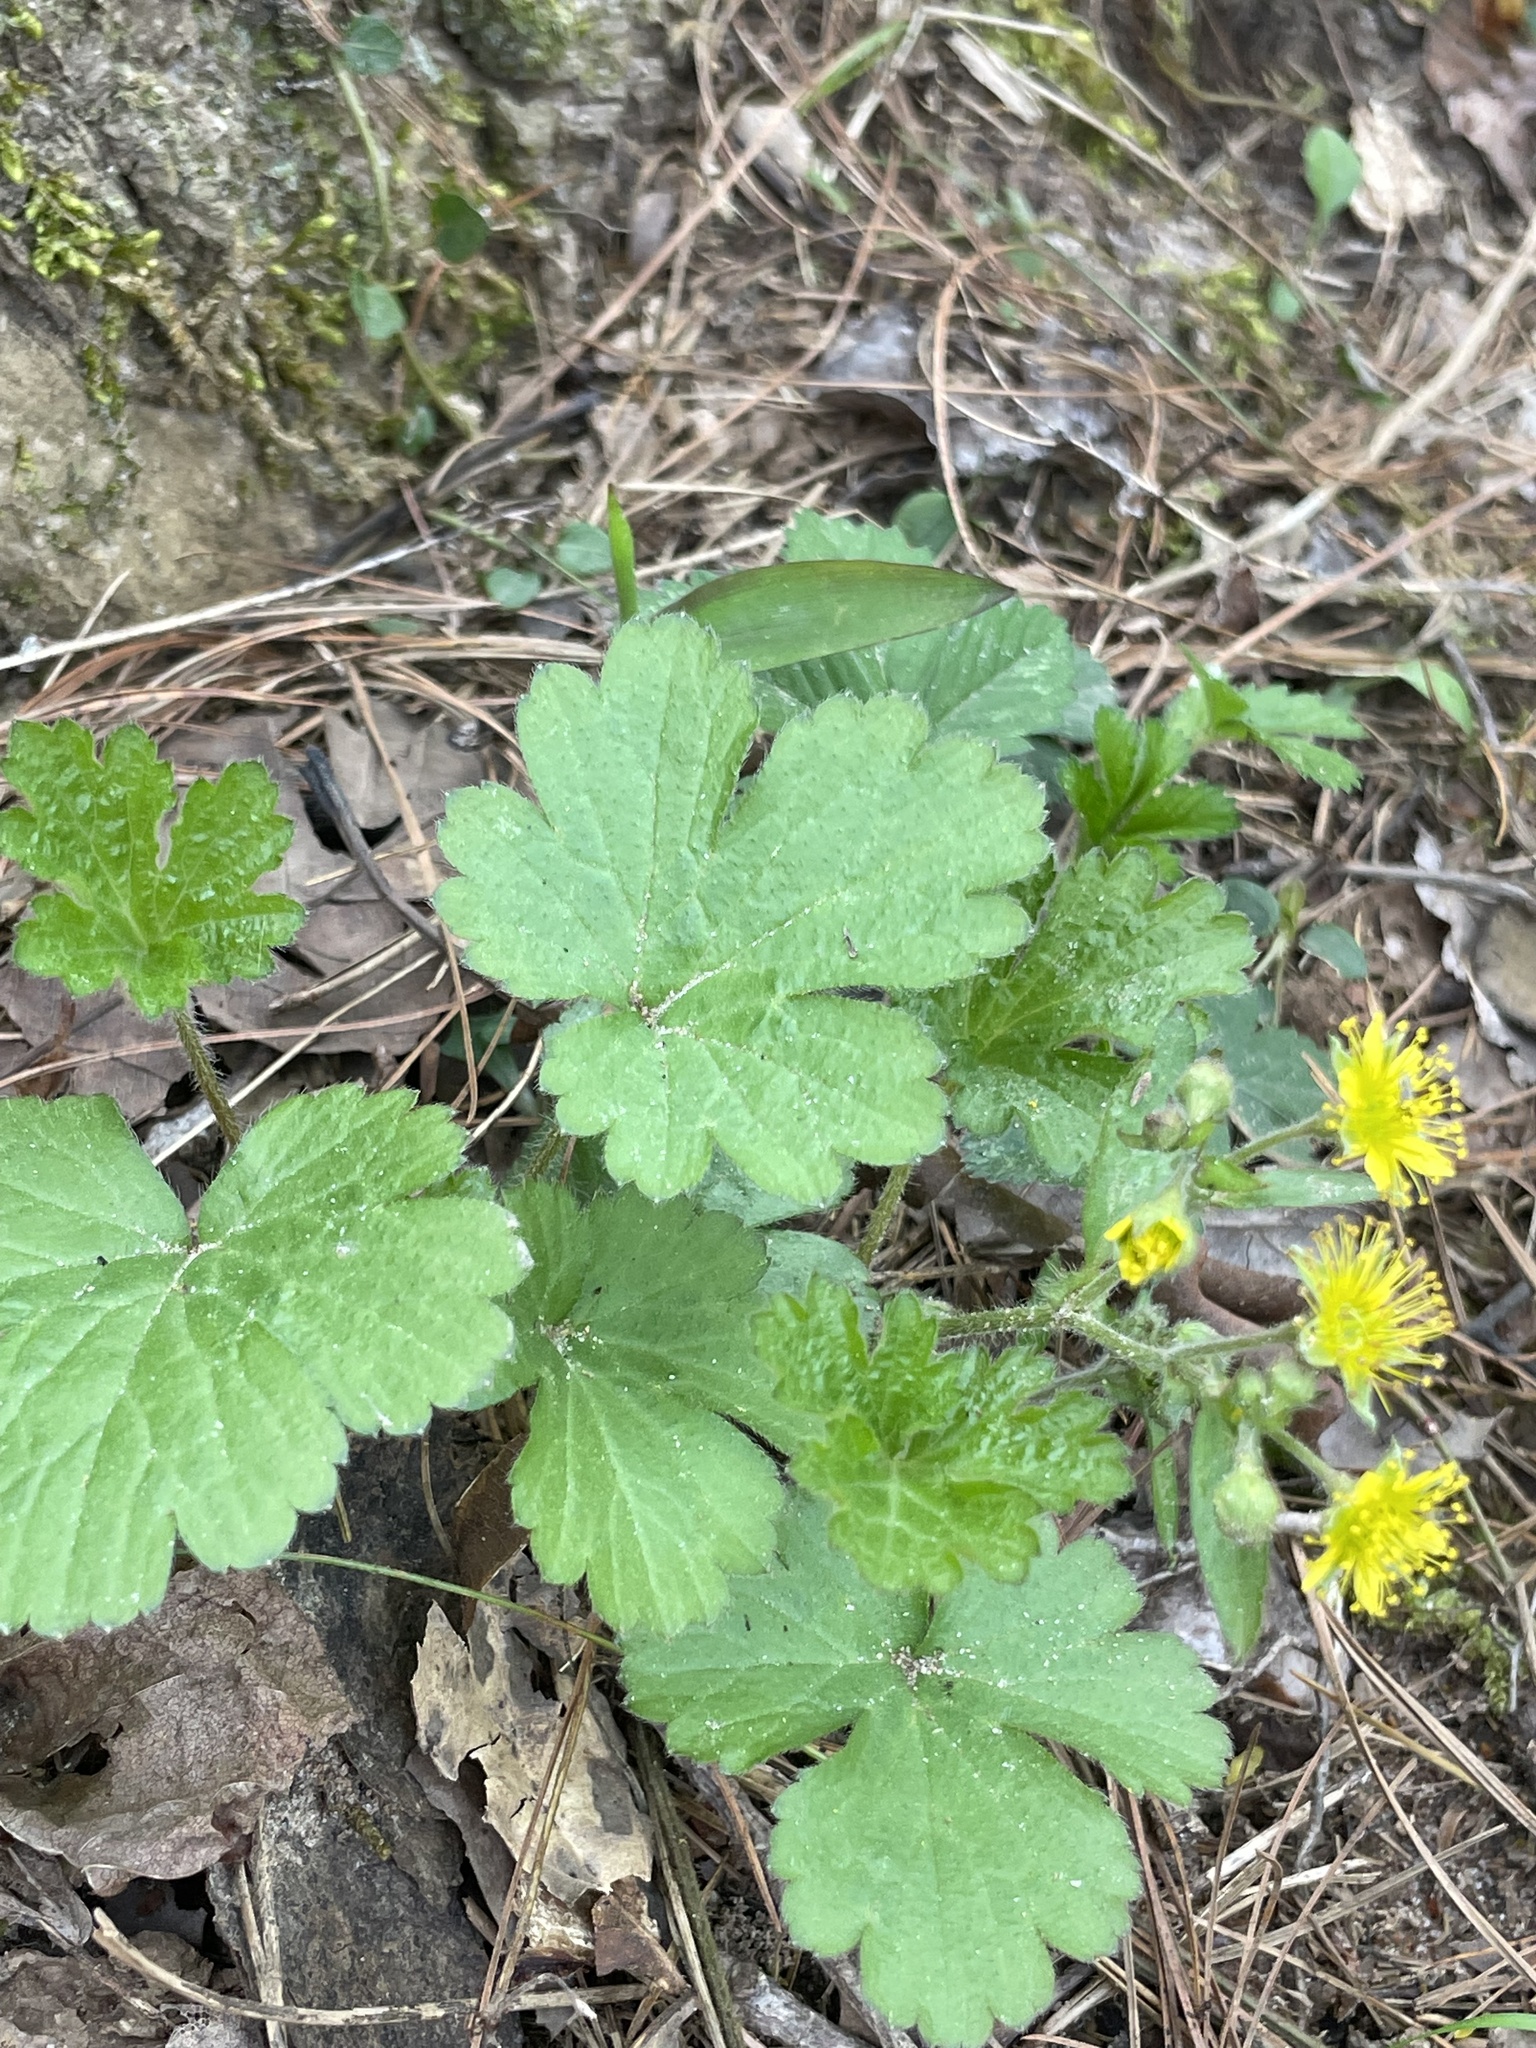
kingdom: Plantae
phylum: Tracheophyta
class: Magnoliopsida
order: Rosales
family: Rosaceae
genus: Geum
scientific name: Geum fragarioides
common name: Appalachian barren strawberry
